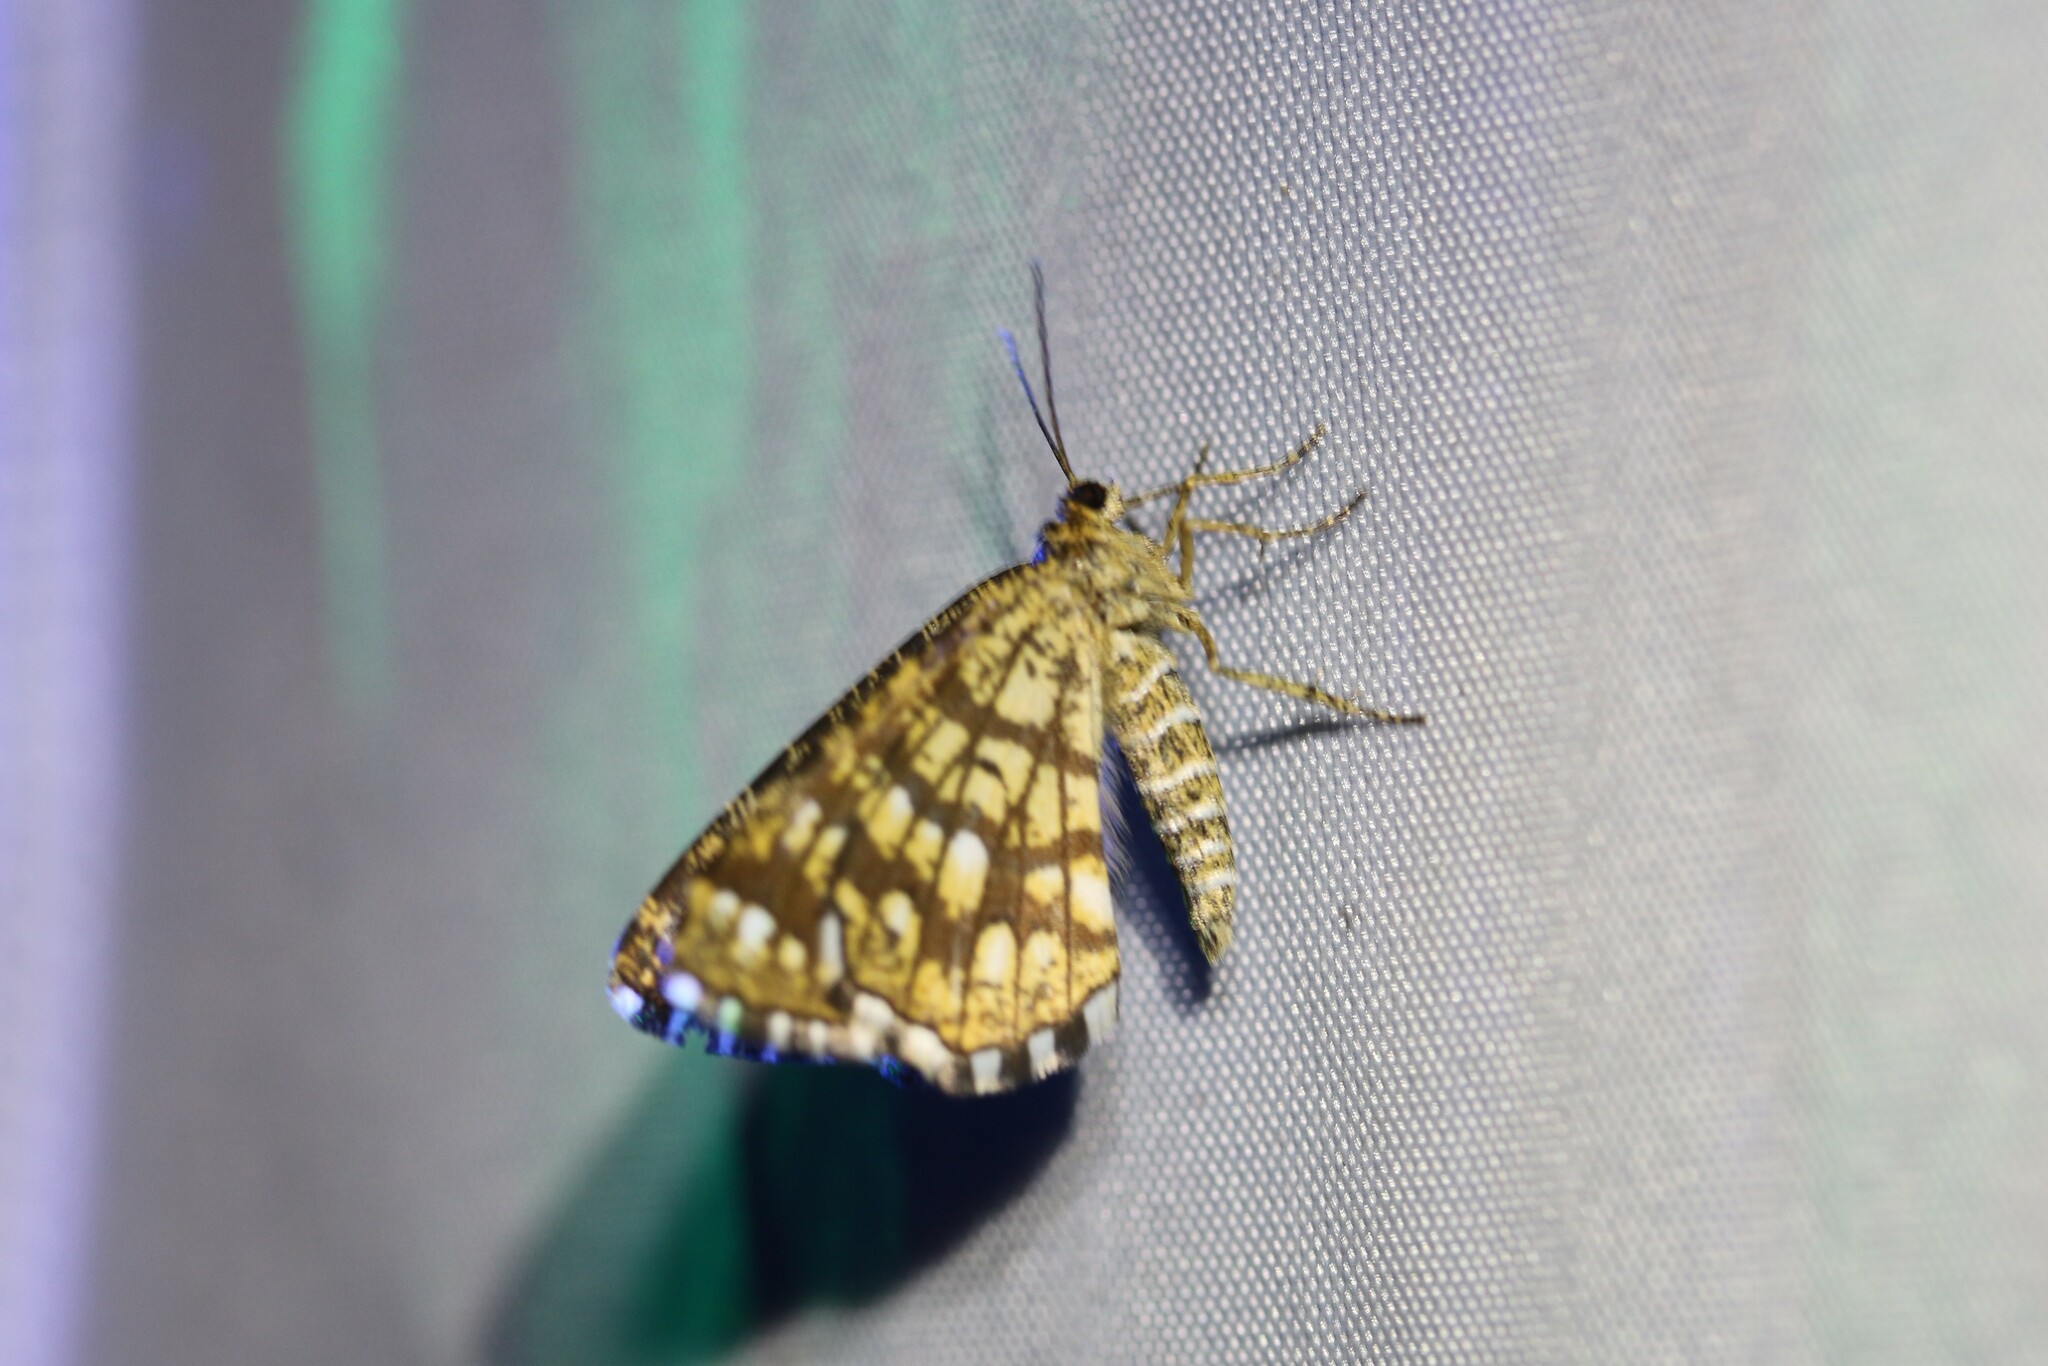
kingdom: Animalia
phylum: Arthropoda
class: Insecta
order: Lepidoptera
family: Geometridae
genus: Chiasmia
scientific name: Chiasmia clathrata
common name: Latticed heath
